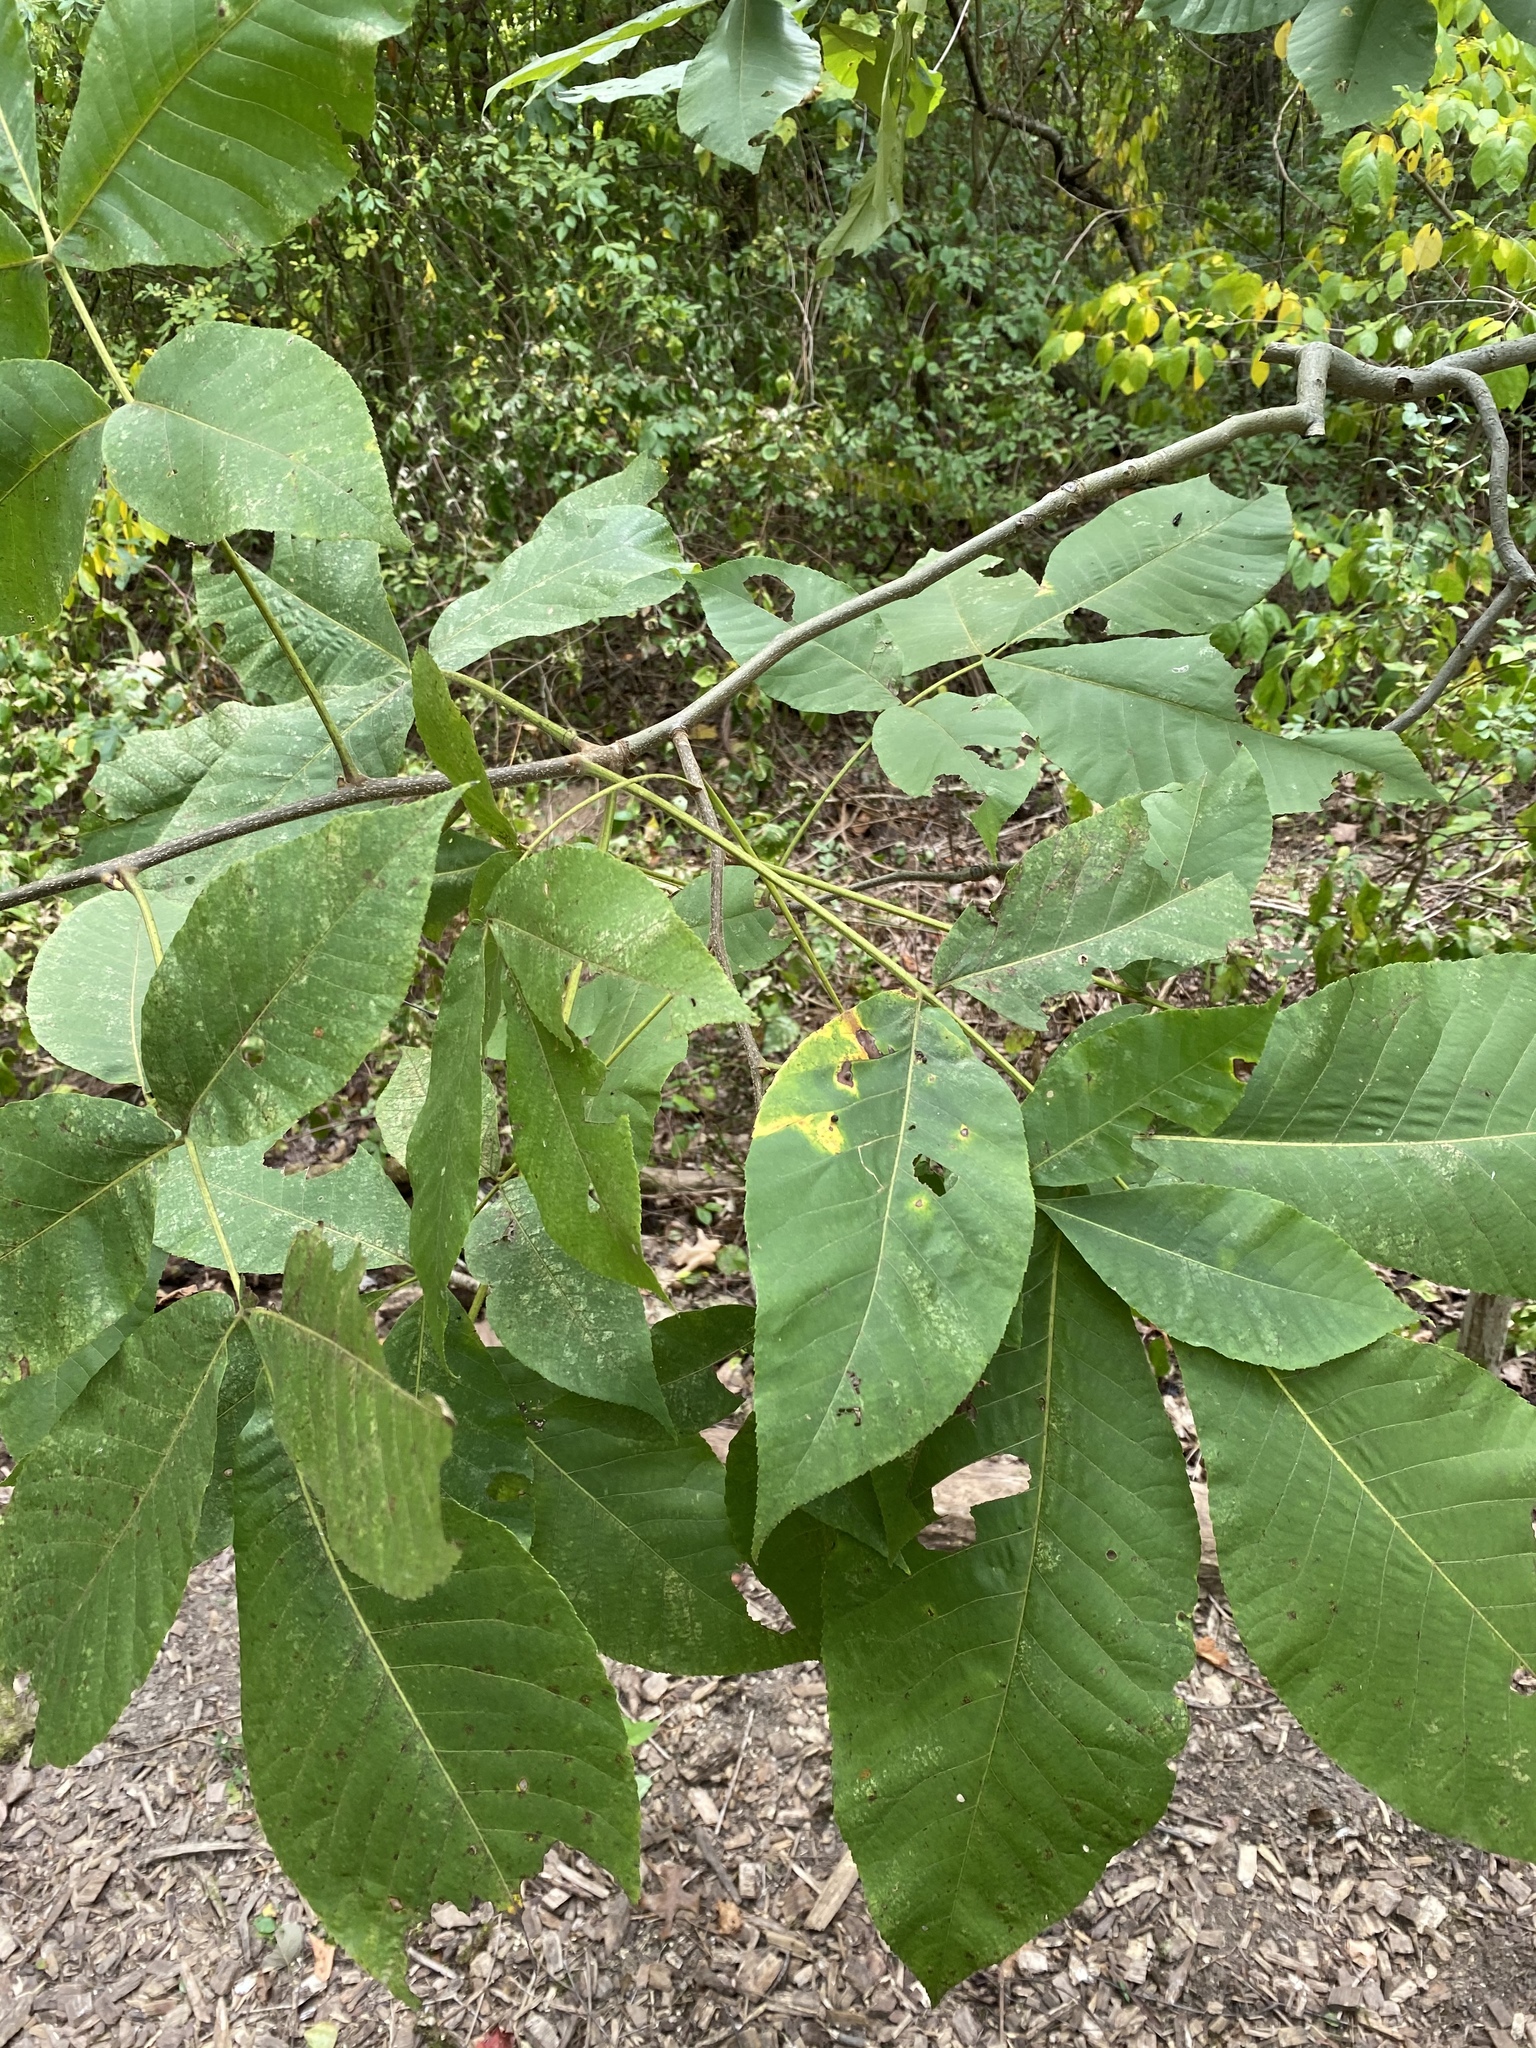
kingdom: Animalia
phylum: Arthropoda
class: Insecta
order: Diptera
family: Cecidomyiidae
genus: Caryomyia
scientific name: Caryomyia viscidolium
